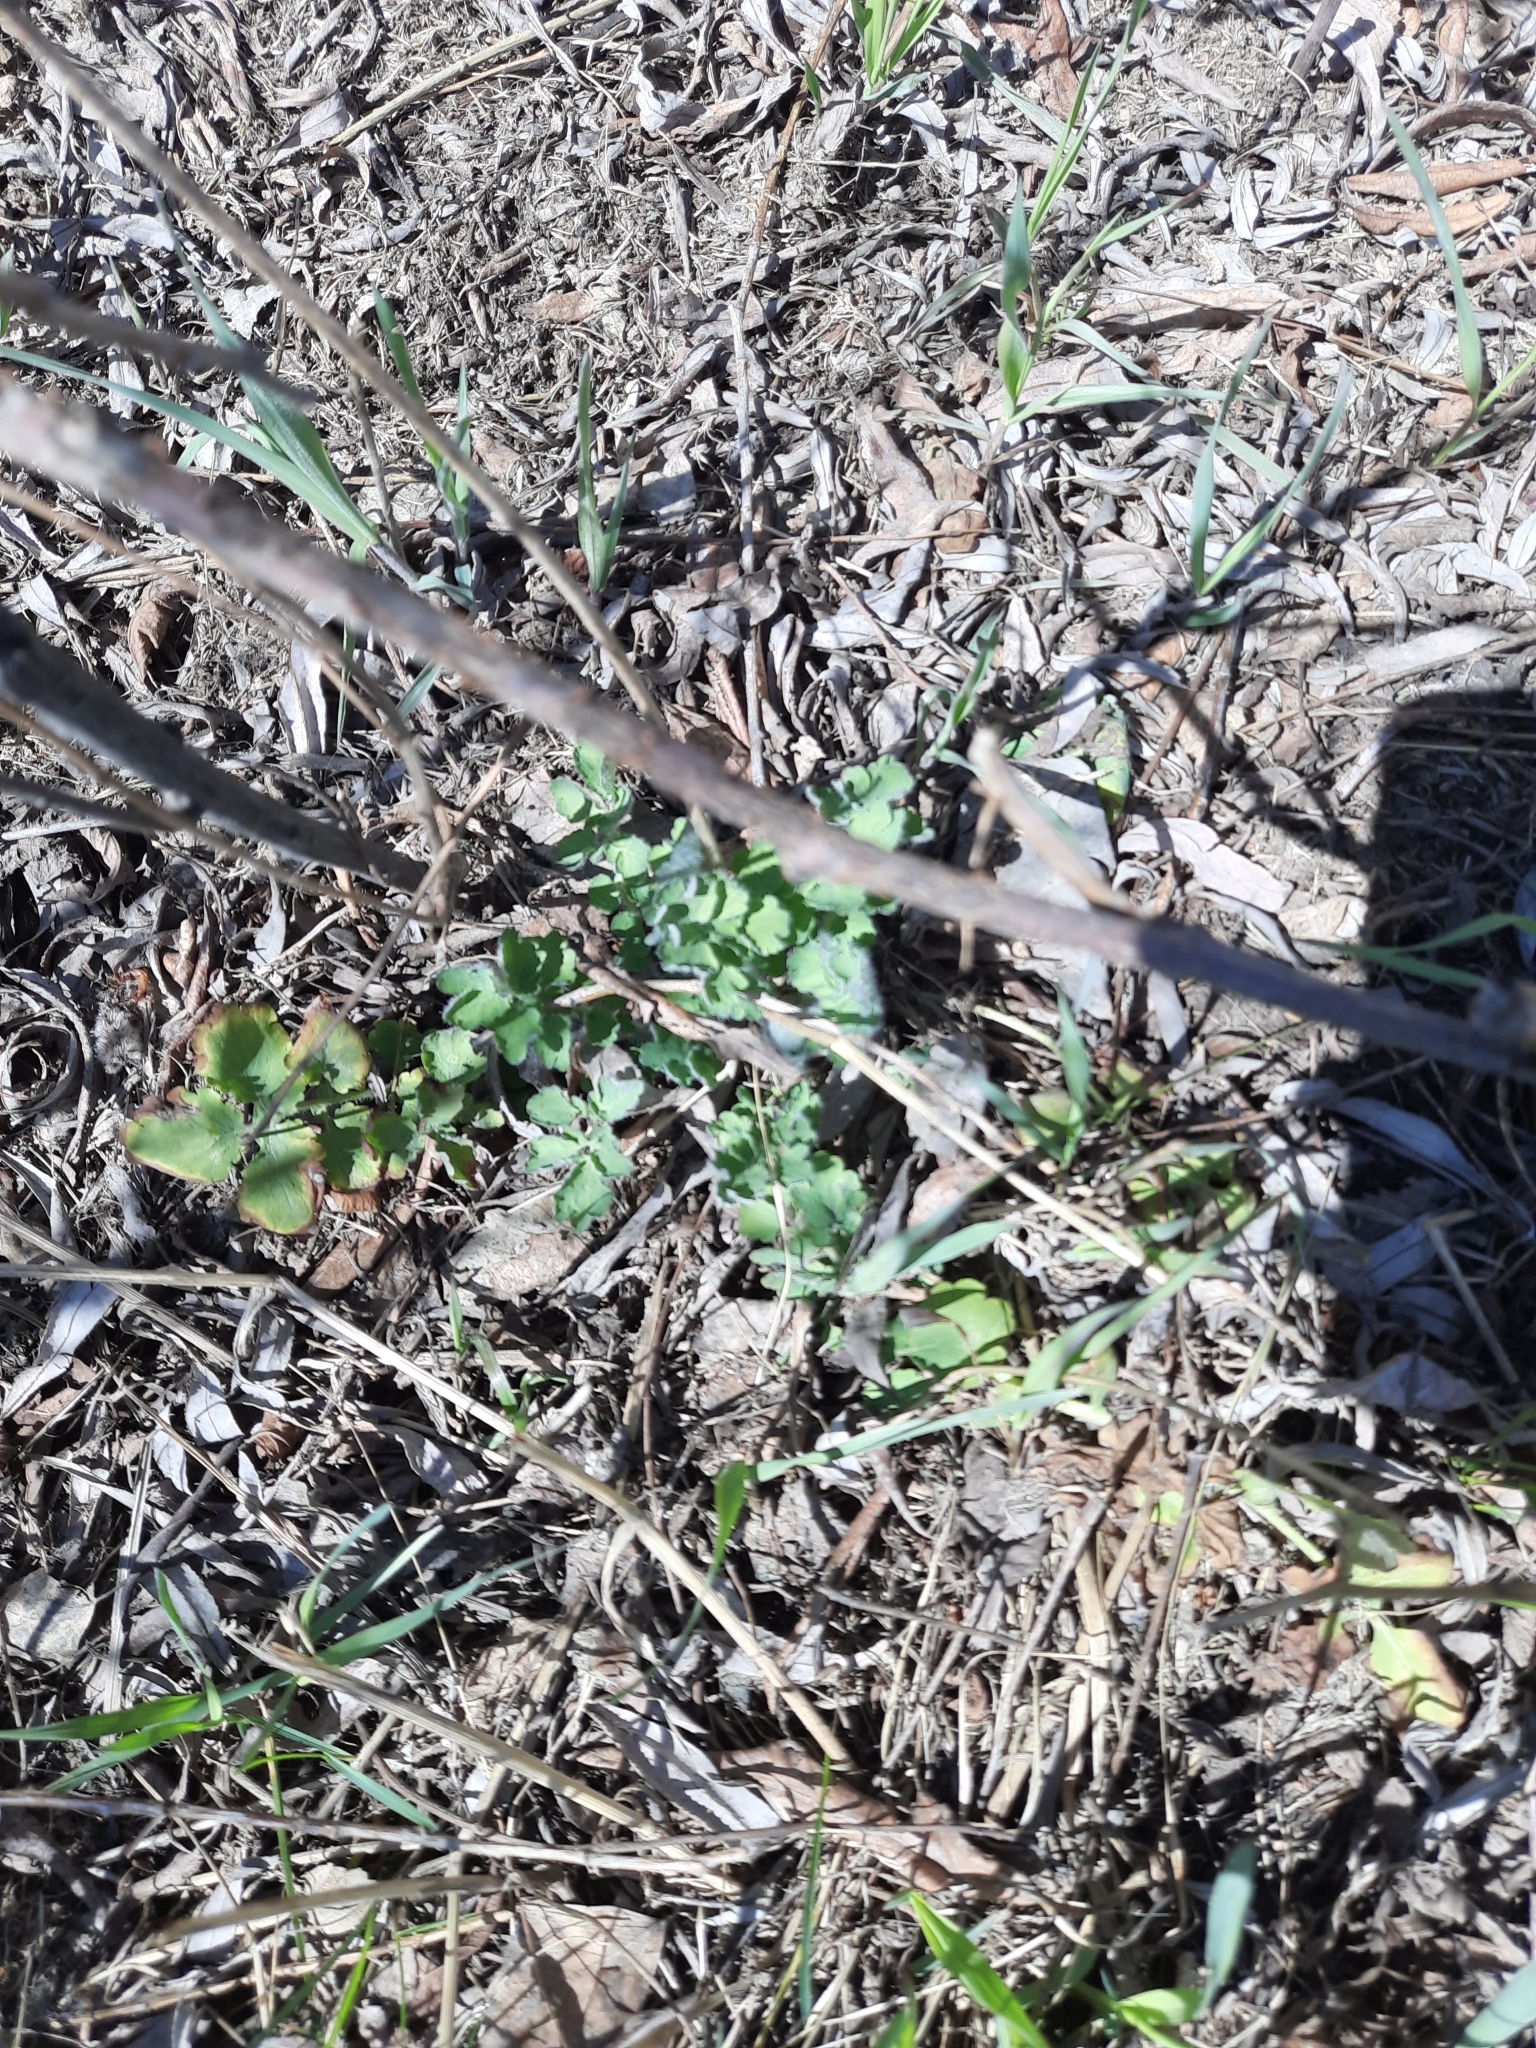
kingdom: Plantae
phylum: Tracheophyta
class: Magnoliopsida
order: Ranunculales
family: Papaveraceae
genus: Chelidonium
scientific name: Chelidonium majus
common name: Greater celandine
